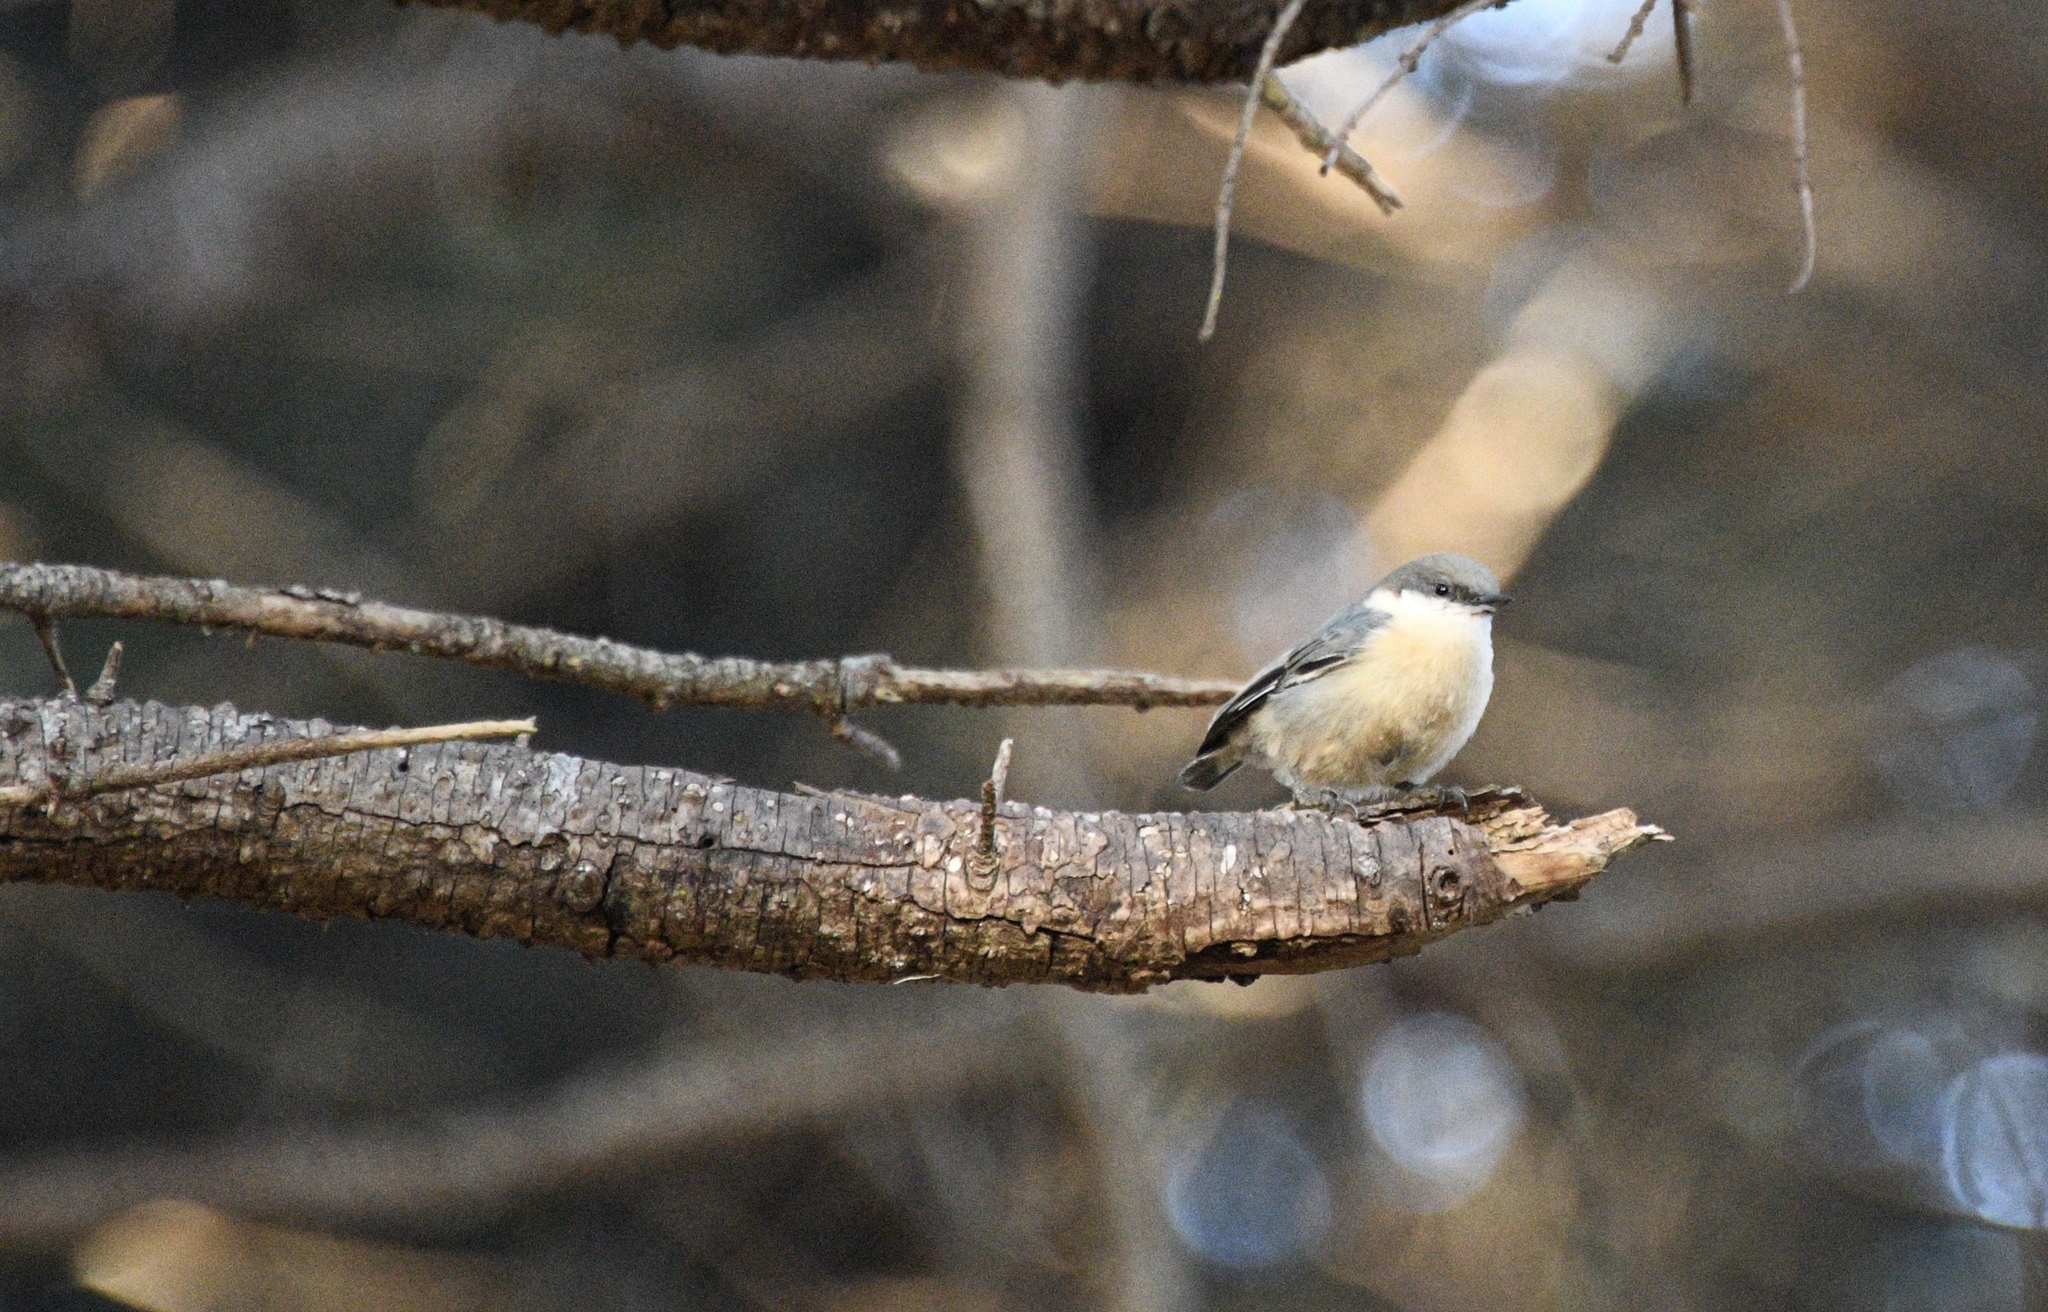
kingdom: Animalia
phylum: Chordata
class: Aves
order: Passeriformes
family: Sittidae
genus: Sitta
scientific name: Sitta pygmaea
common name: Pygmy nuthatch
